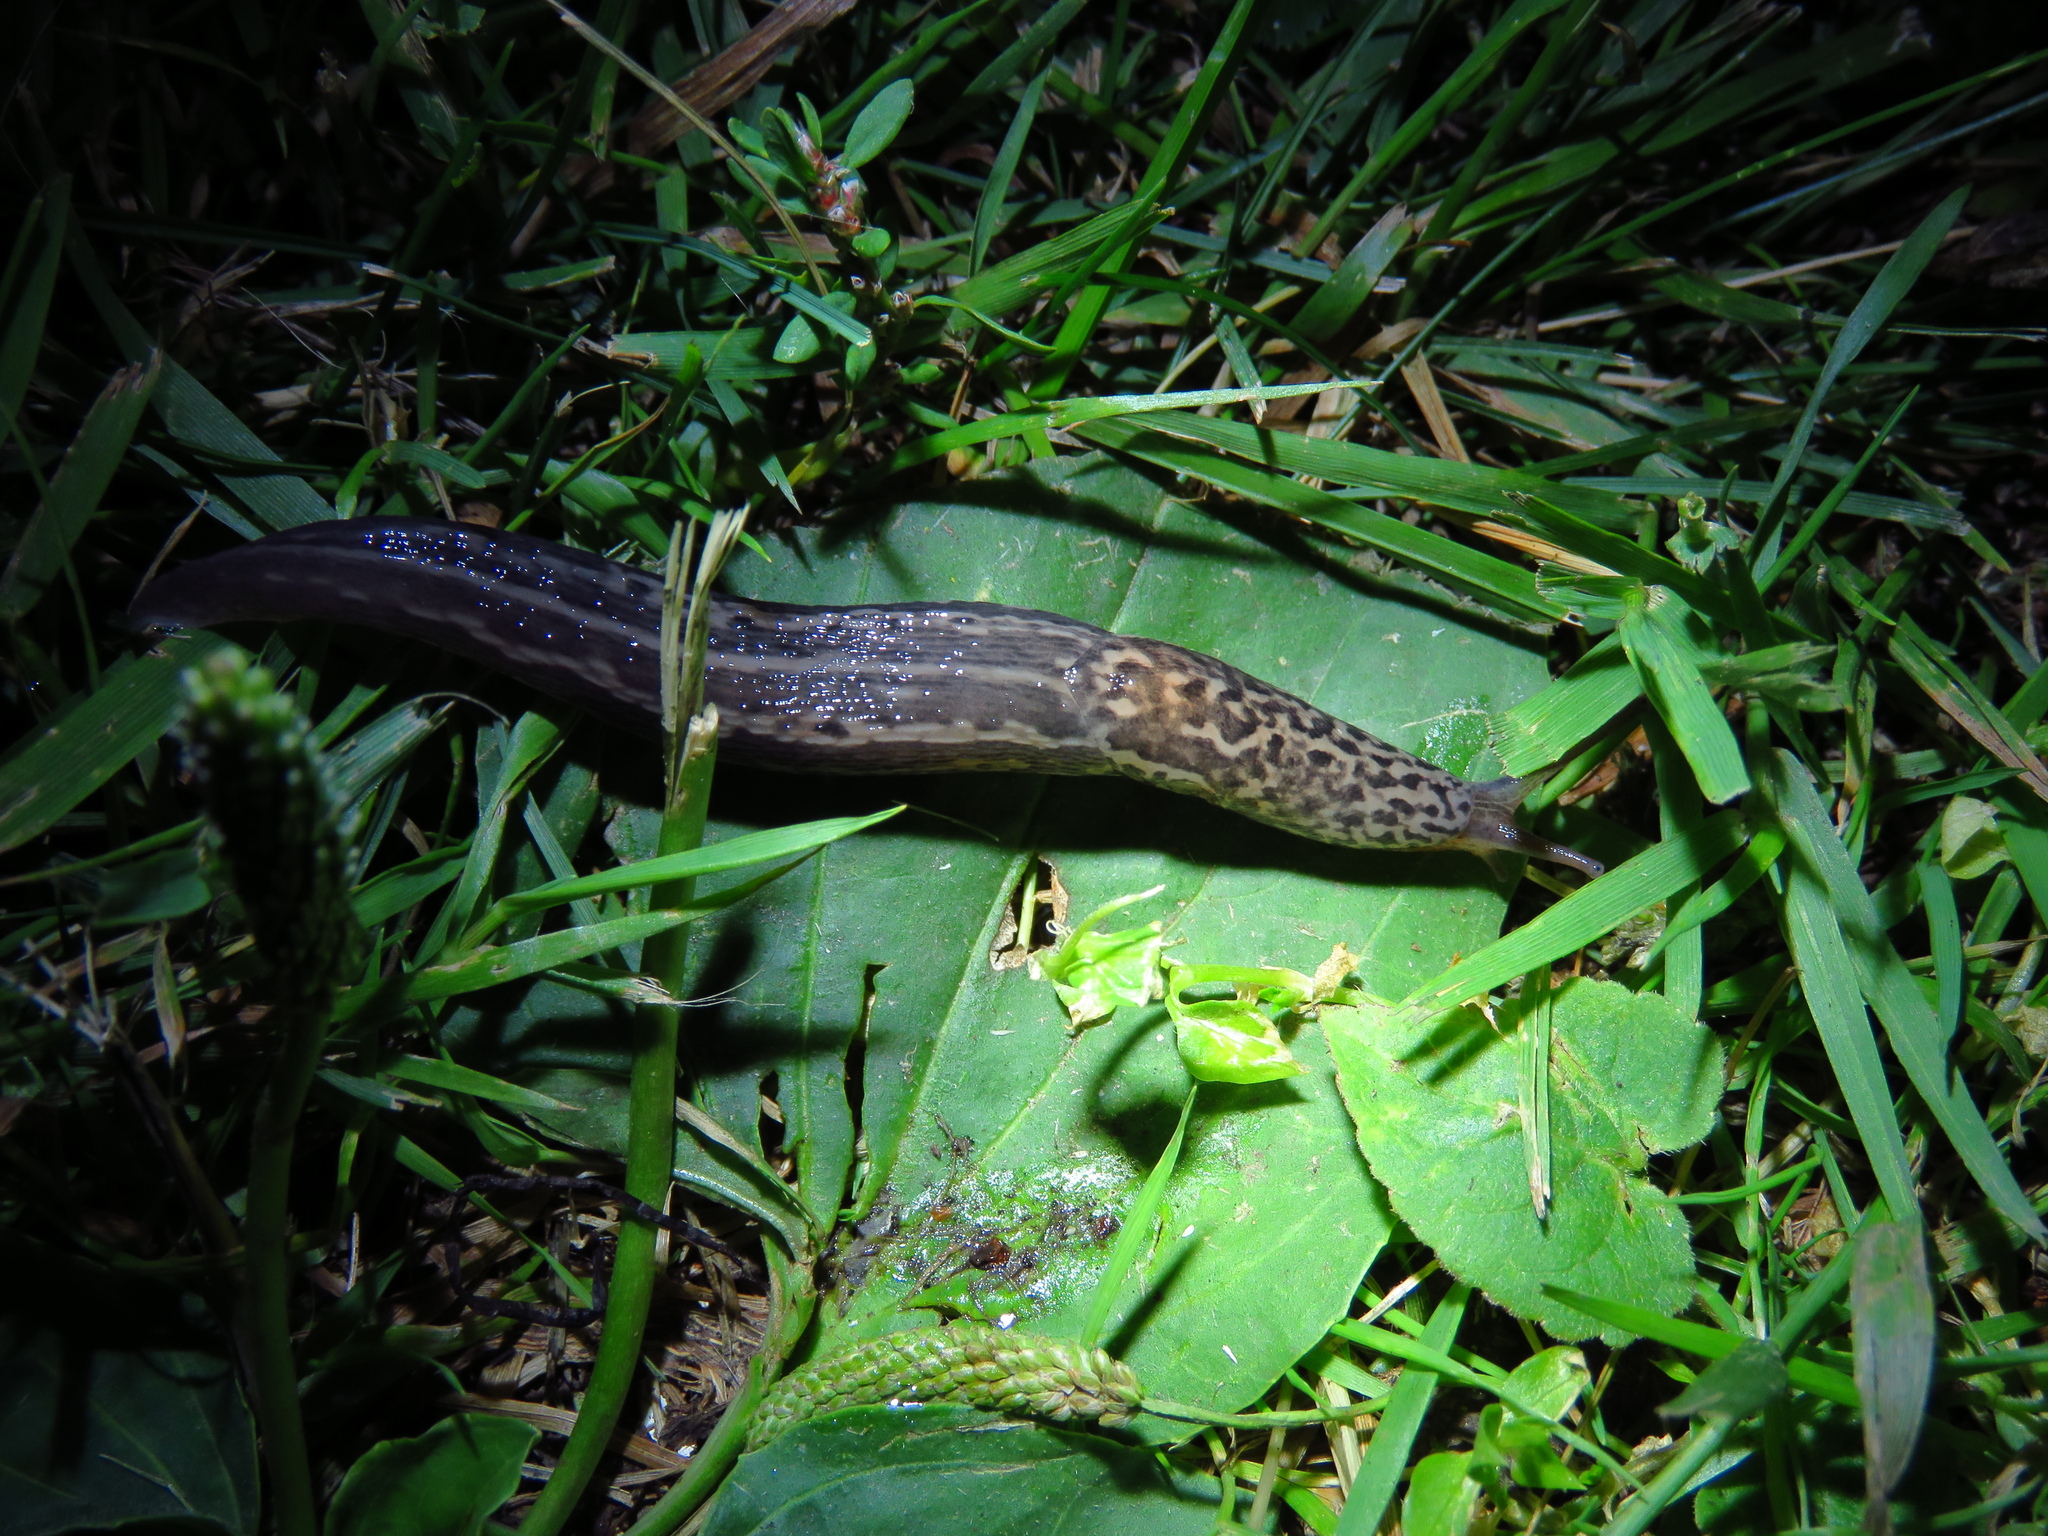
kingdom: Animalia
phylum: Mollusca
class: Gastropoda
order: Stylommatophora
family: Limacidae
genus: Limax
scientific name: Limax maximus
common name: Great grey slug
